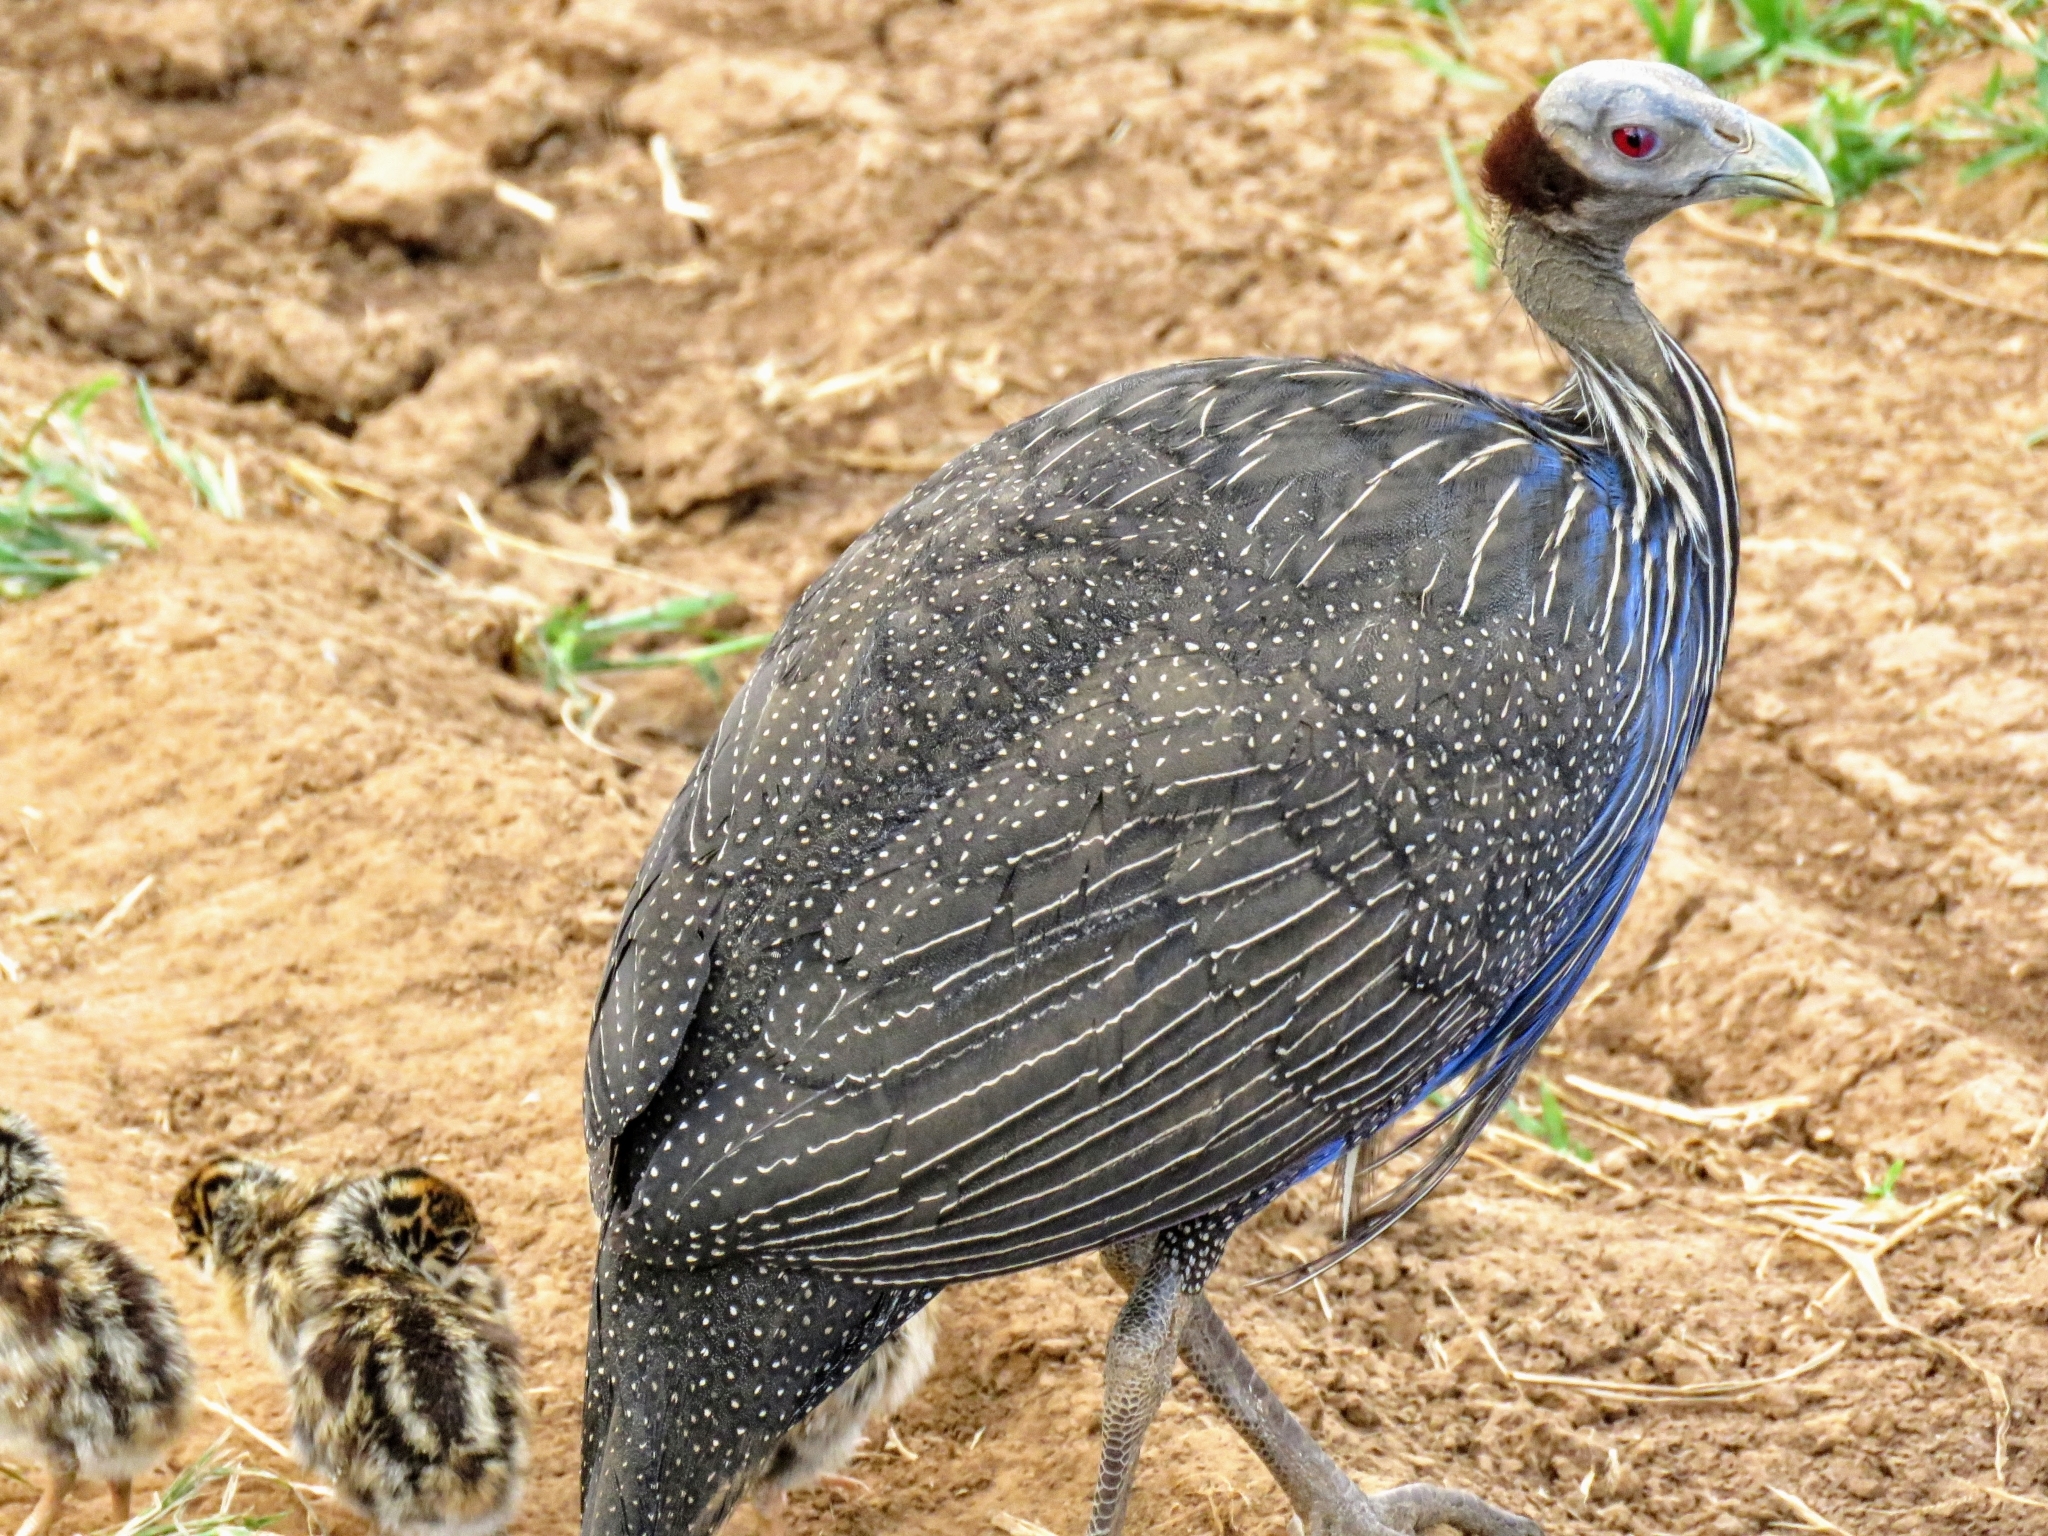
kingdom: Animalia
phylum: Chordata
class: Aves
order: Galliformes
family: Numididae
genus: Acryllium
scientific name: Acryllium vulturinum
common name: Vulturine guineafowl
